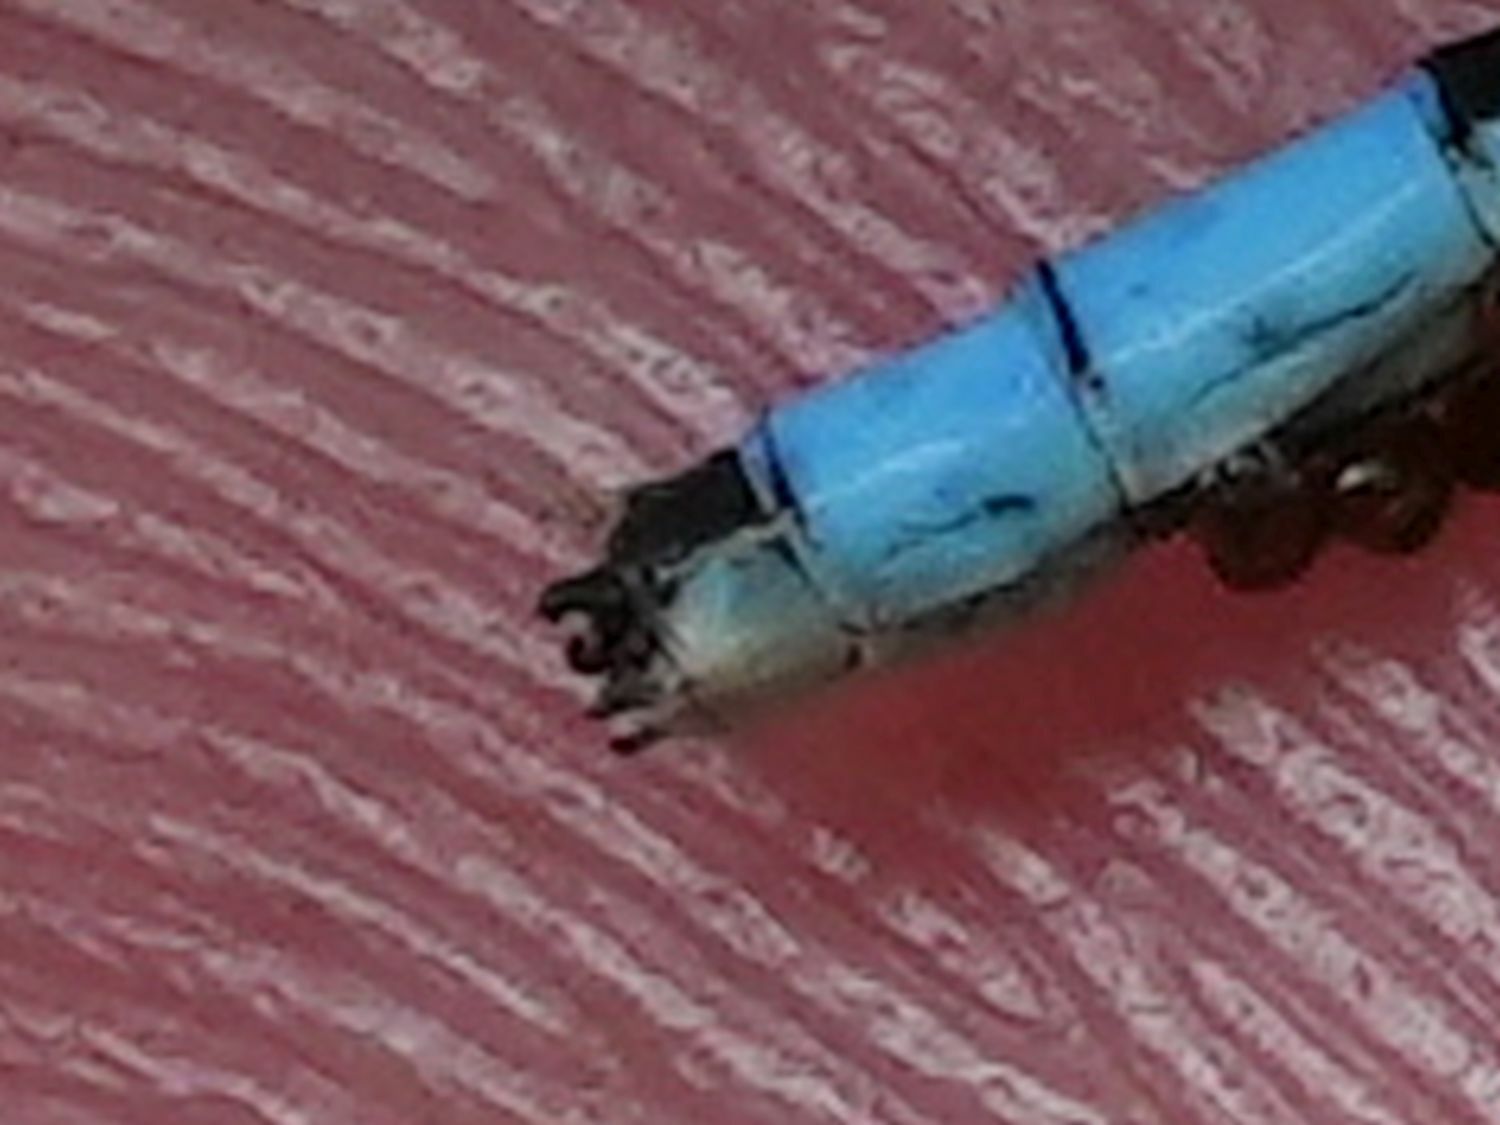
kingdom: Animalia
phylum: Arthropoda
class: Insecta
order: Odonata
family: Coenagrionidae
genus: Enallagma
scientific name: Enallagma ebrium
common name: Marsh bluet
